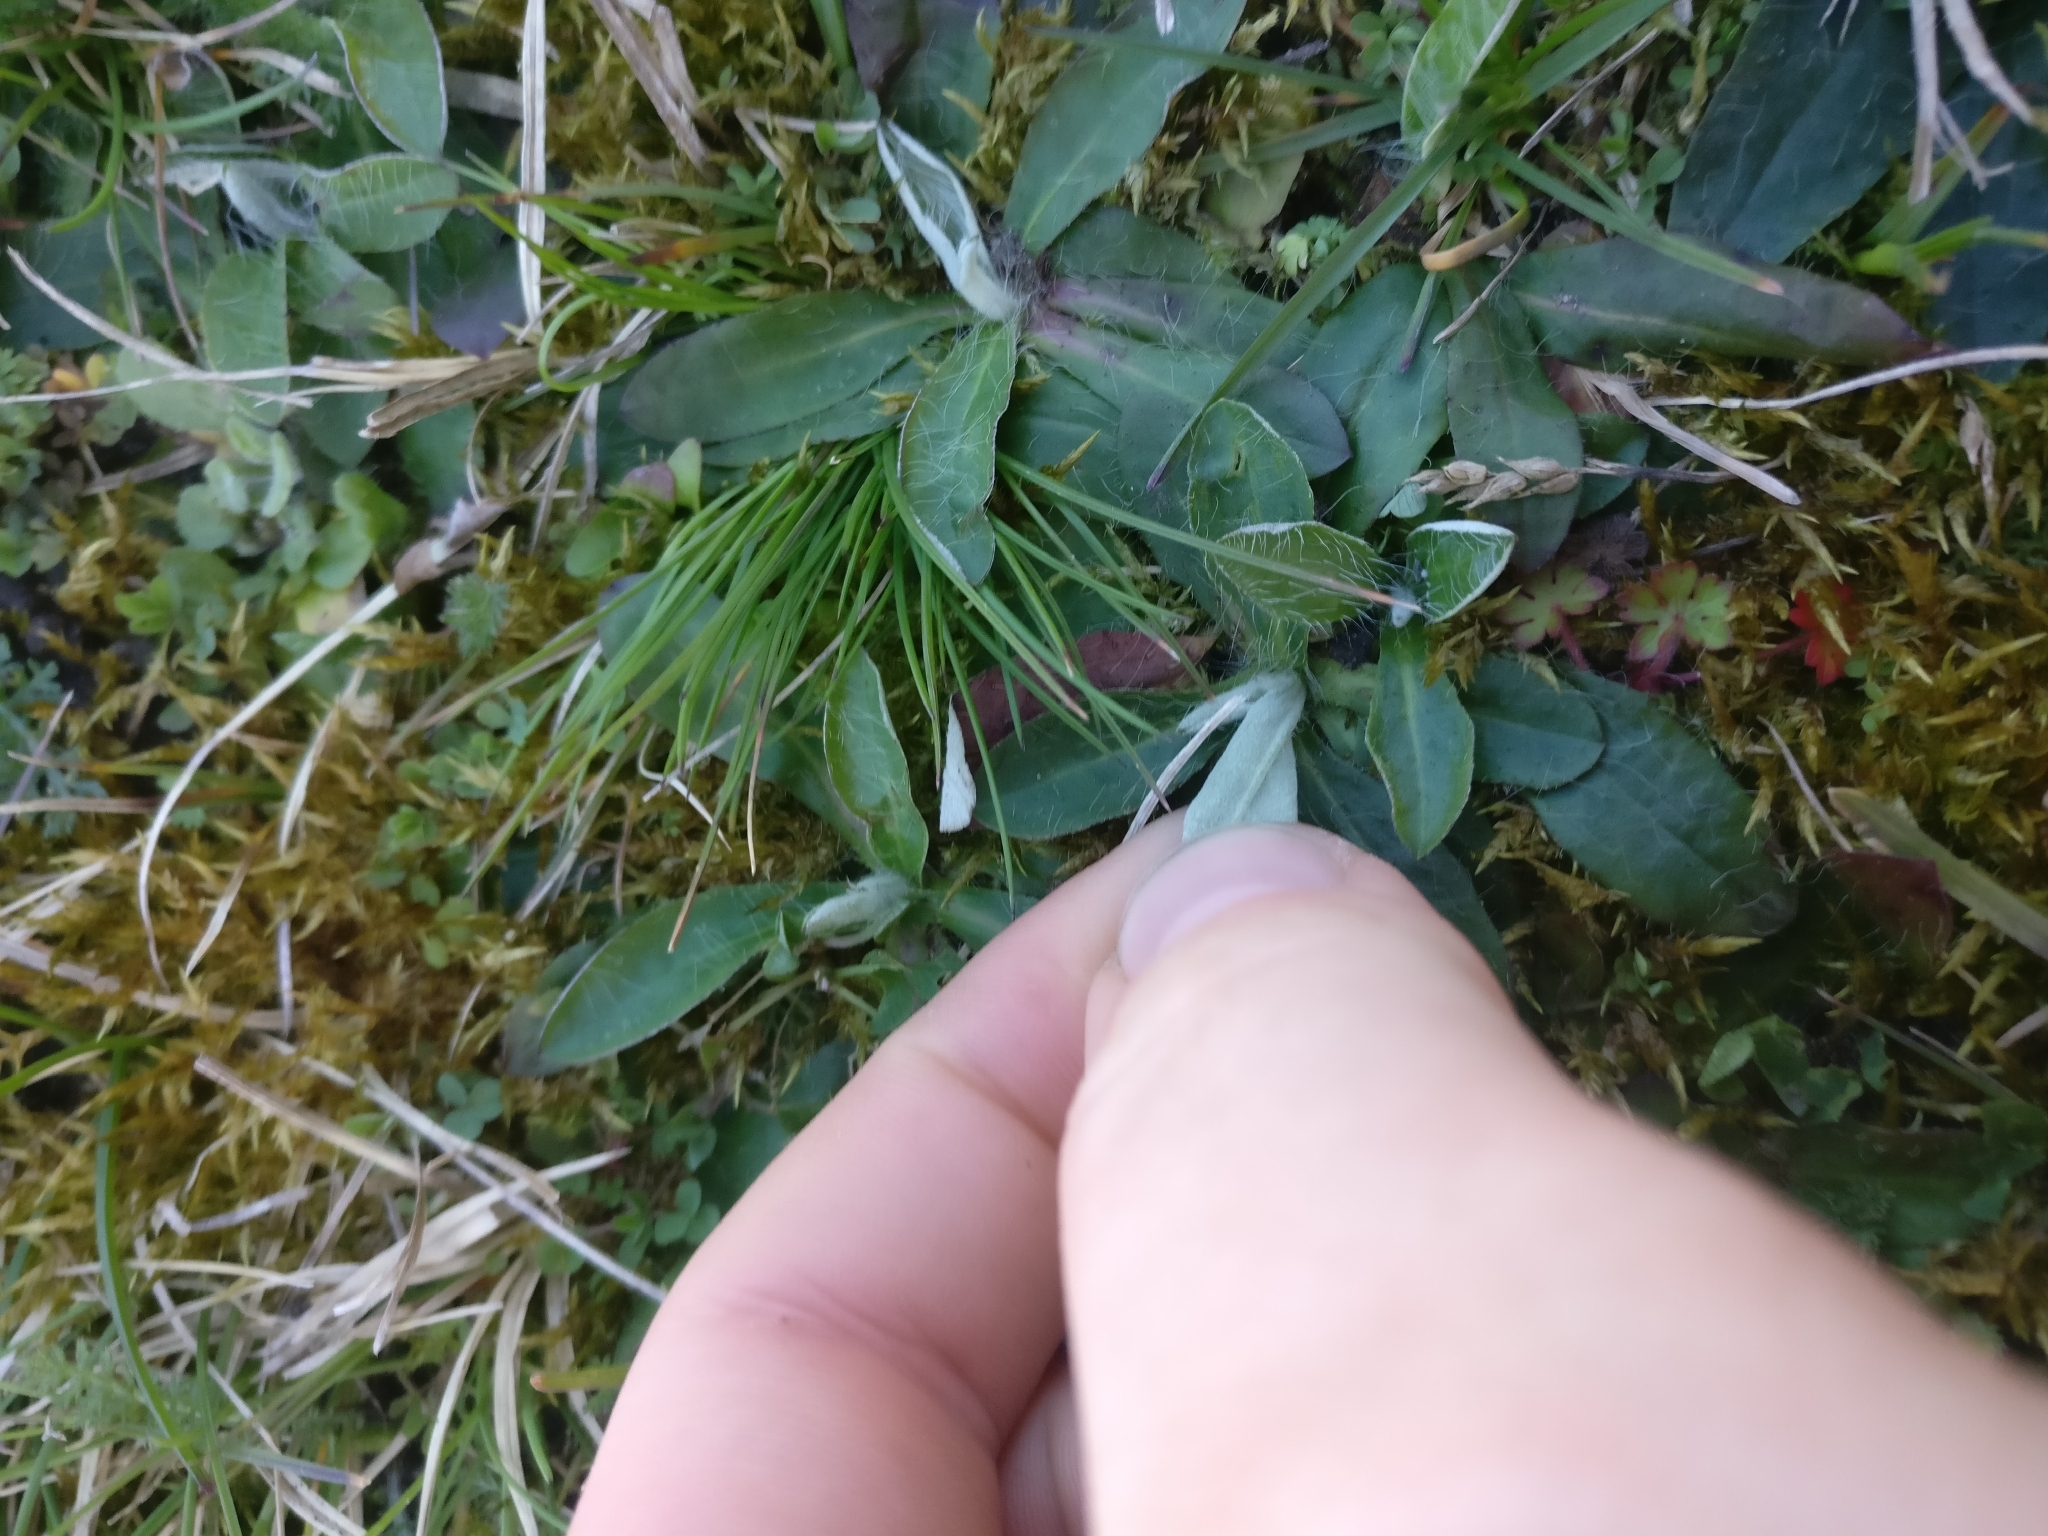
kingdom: Plantae
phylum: Tracheophyta
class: Magnoliopsida
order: Asterales
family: Asteraceae
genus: Pilosella
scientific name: Pilosella officinarum
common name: Mouse-ear hawkweed
